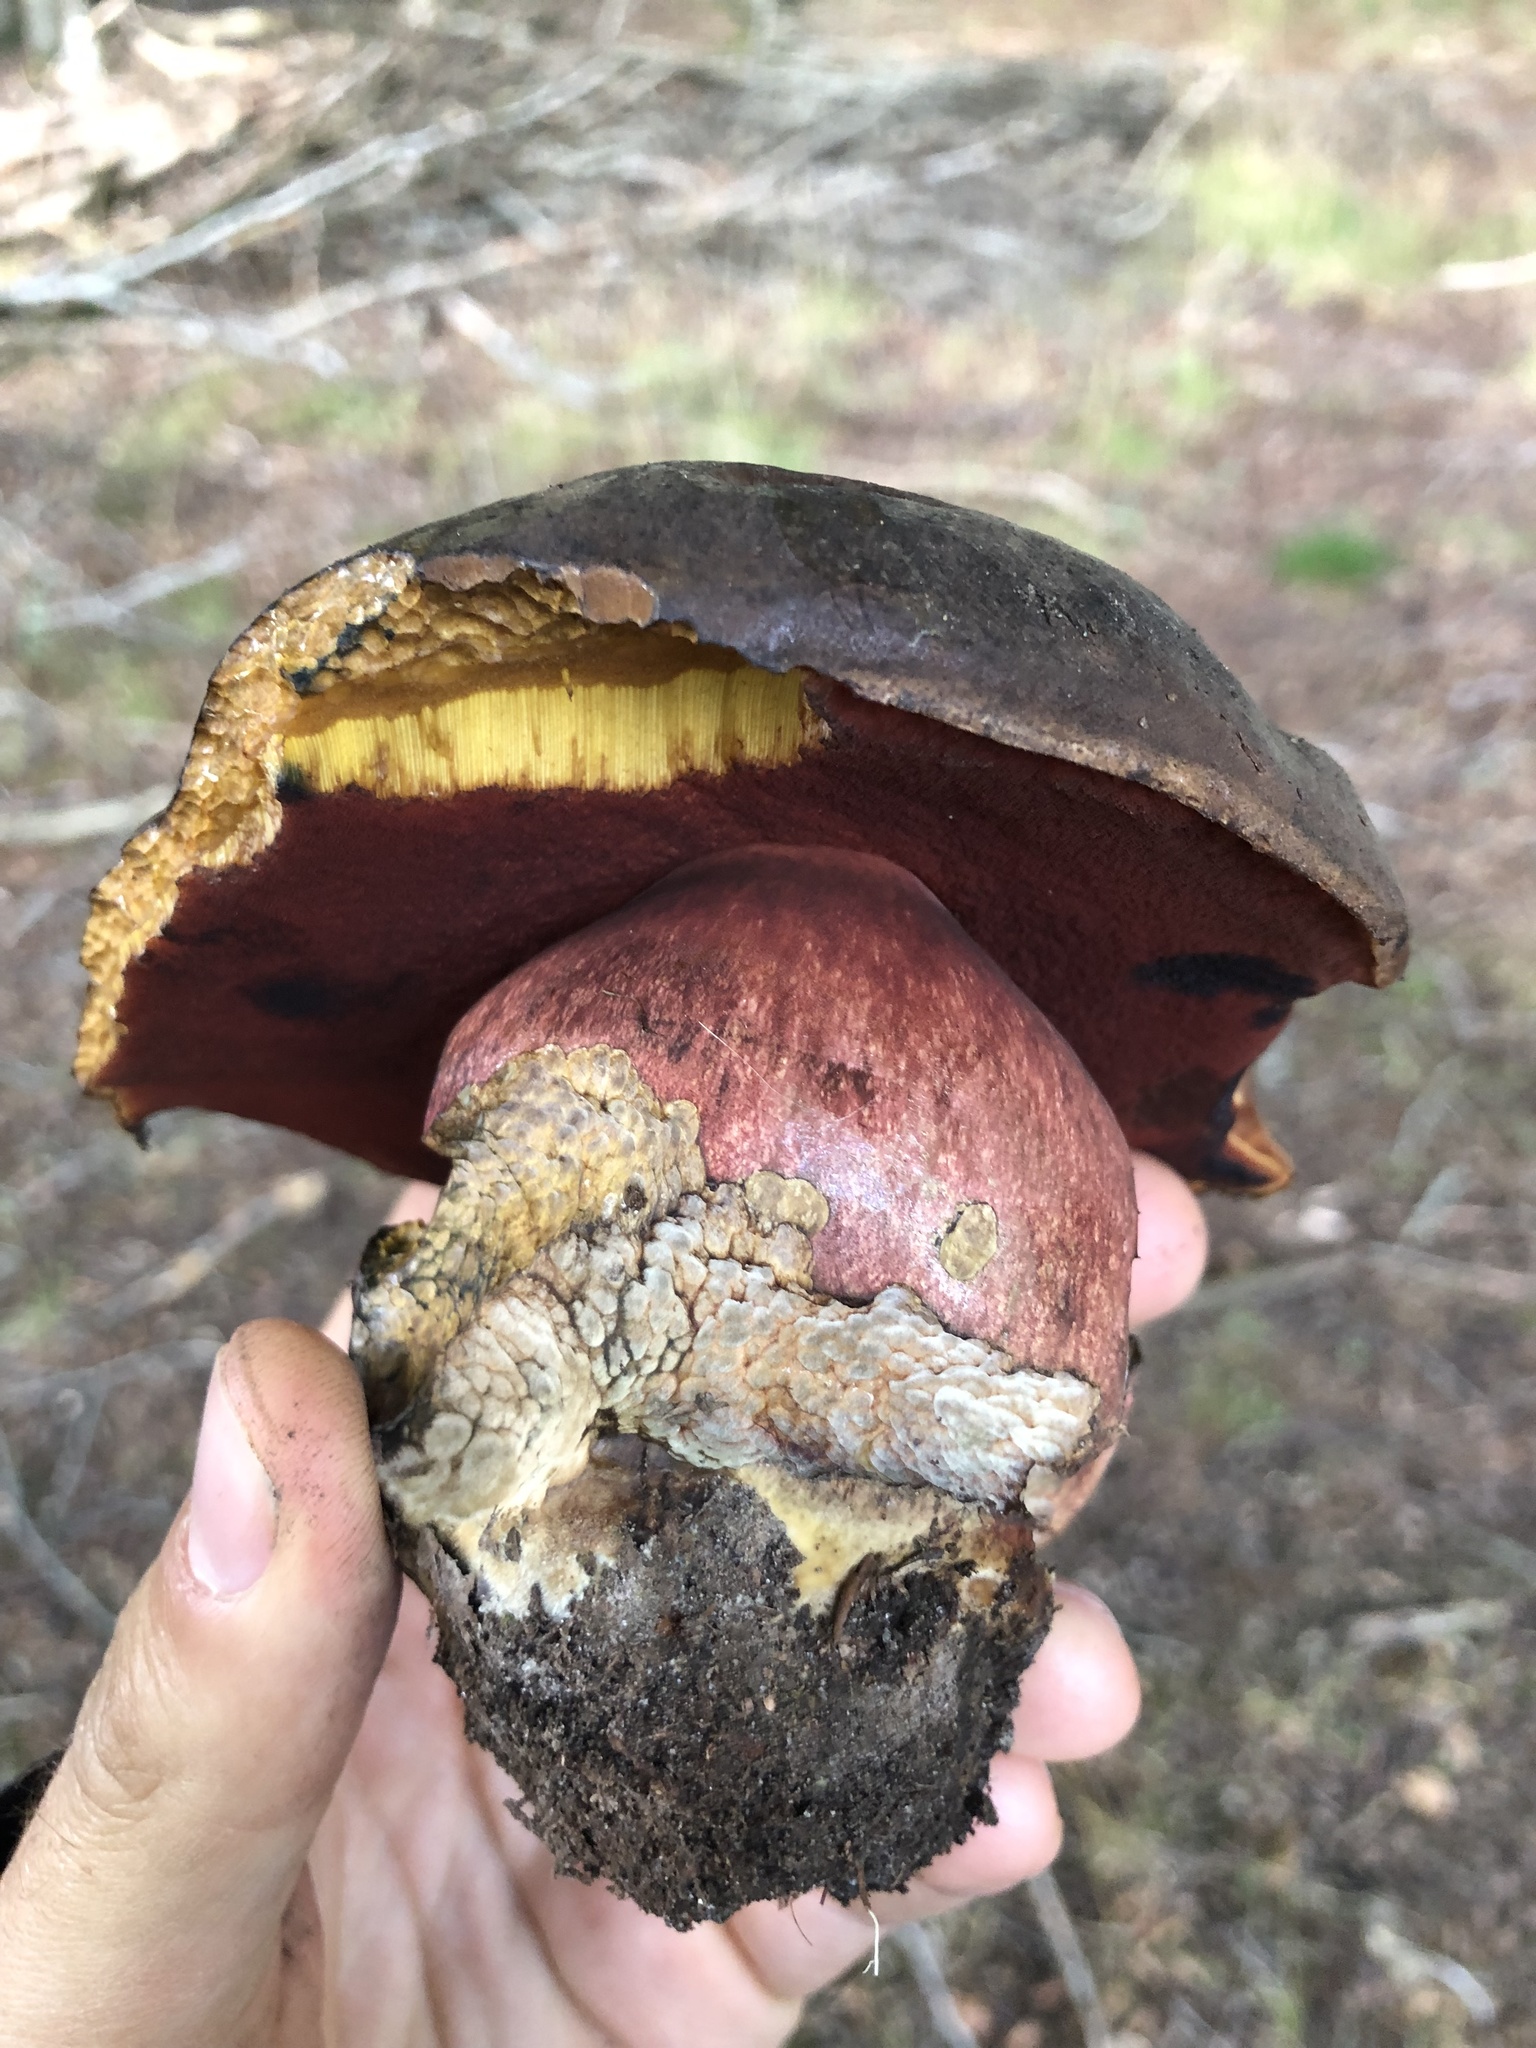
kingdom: Fungi
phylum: Basidiomycota
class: Agaricomycetes
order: Boletales
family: Boletaceae
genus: Neoboletus
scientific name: Neoboletus luridiformis
